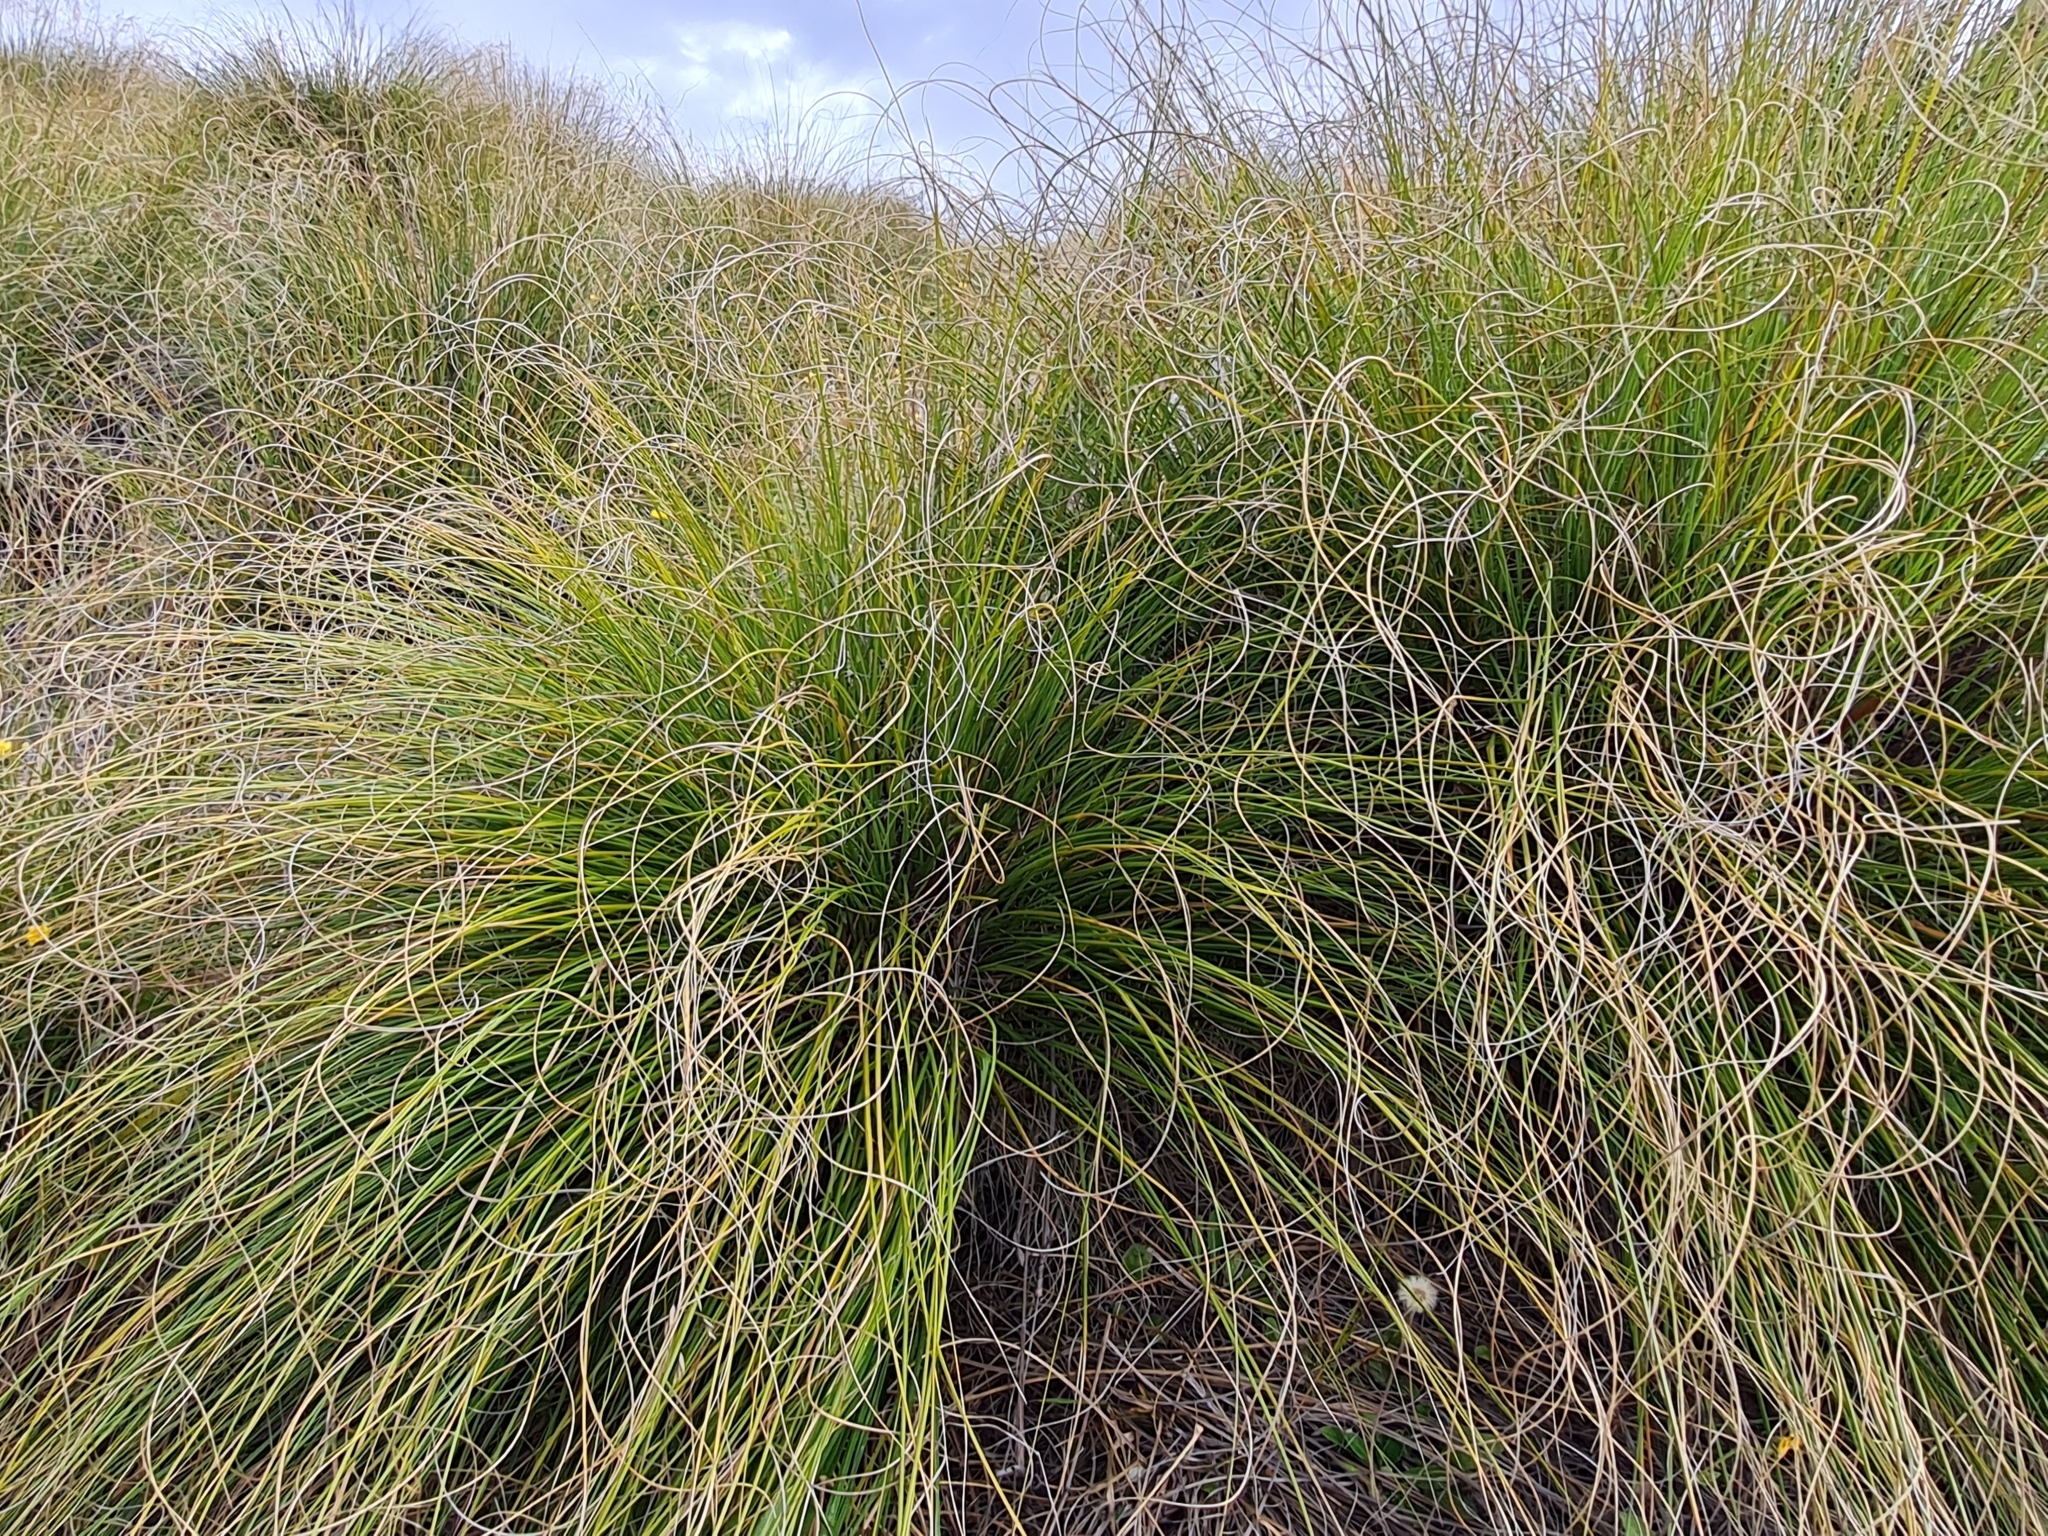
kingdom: Plantae
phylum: Tracheophyta
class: Liliopsida
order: Poales
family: Poaceae
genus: Chionochloa
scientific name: Chionochloa rigida
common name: Narrow leaved snow tussock
